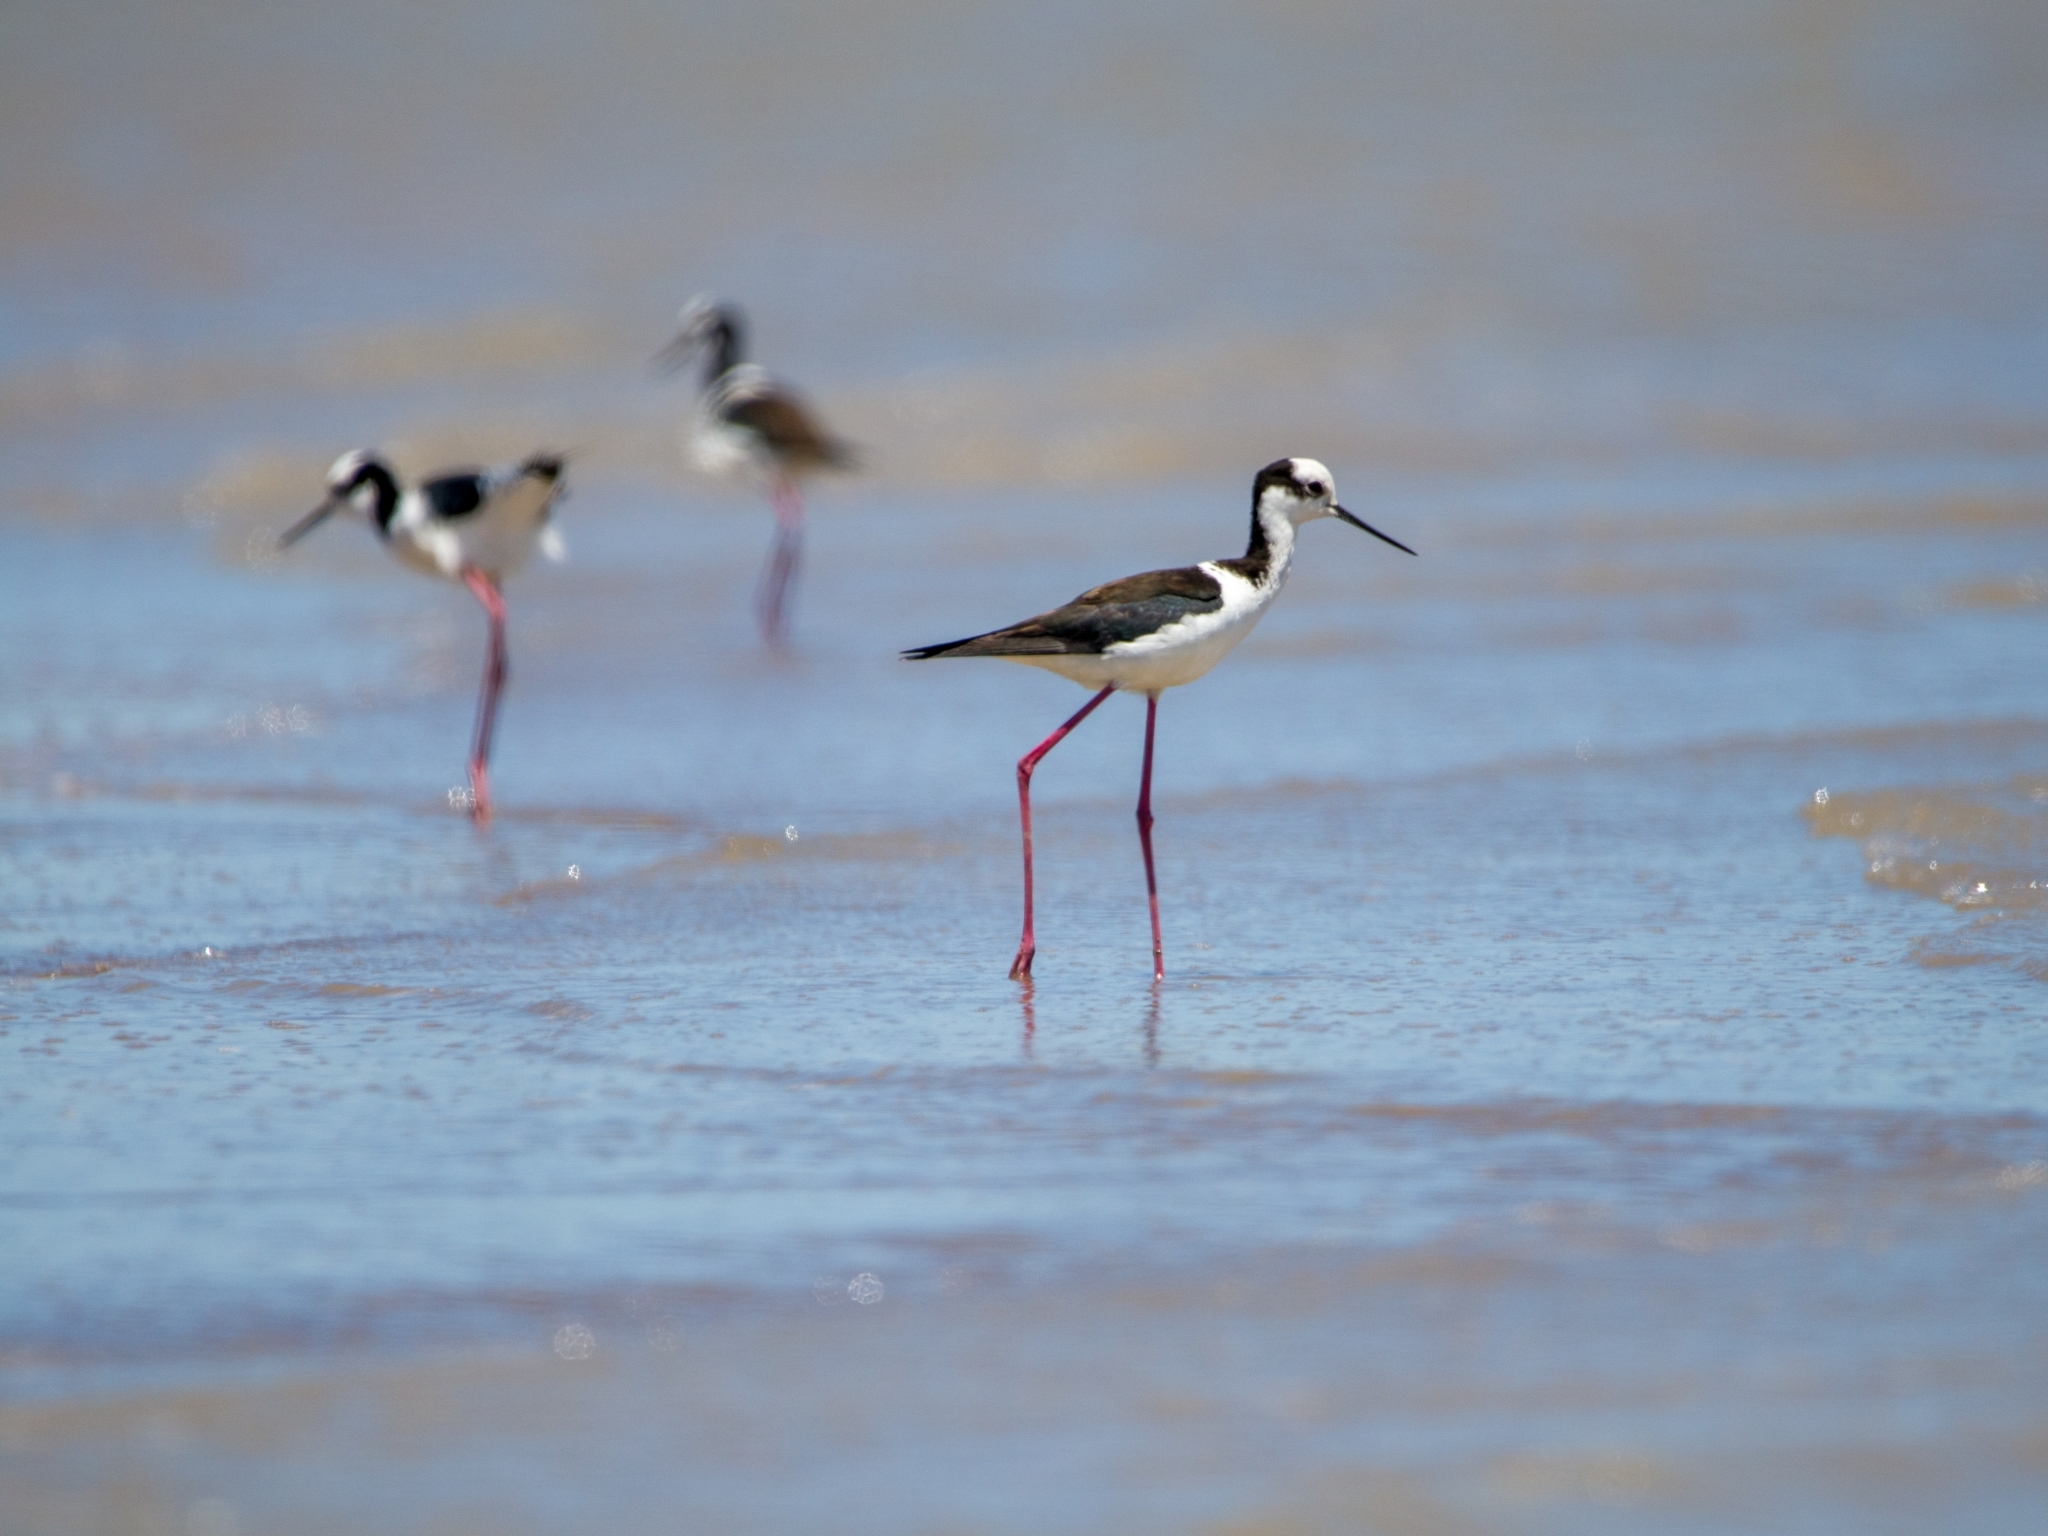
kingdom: Animalia
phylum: Chordata
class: Aves
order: Charadriiformes
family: Recurvirostridae
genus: Himantopus
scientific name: Himantopus mexicanus
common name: Black-necked stilt
